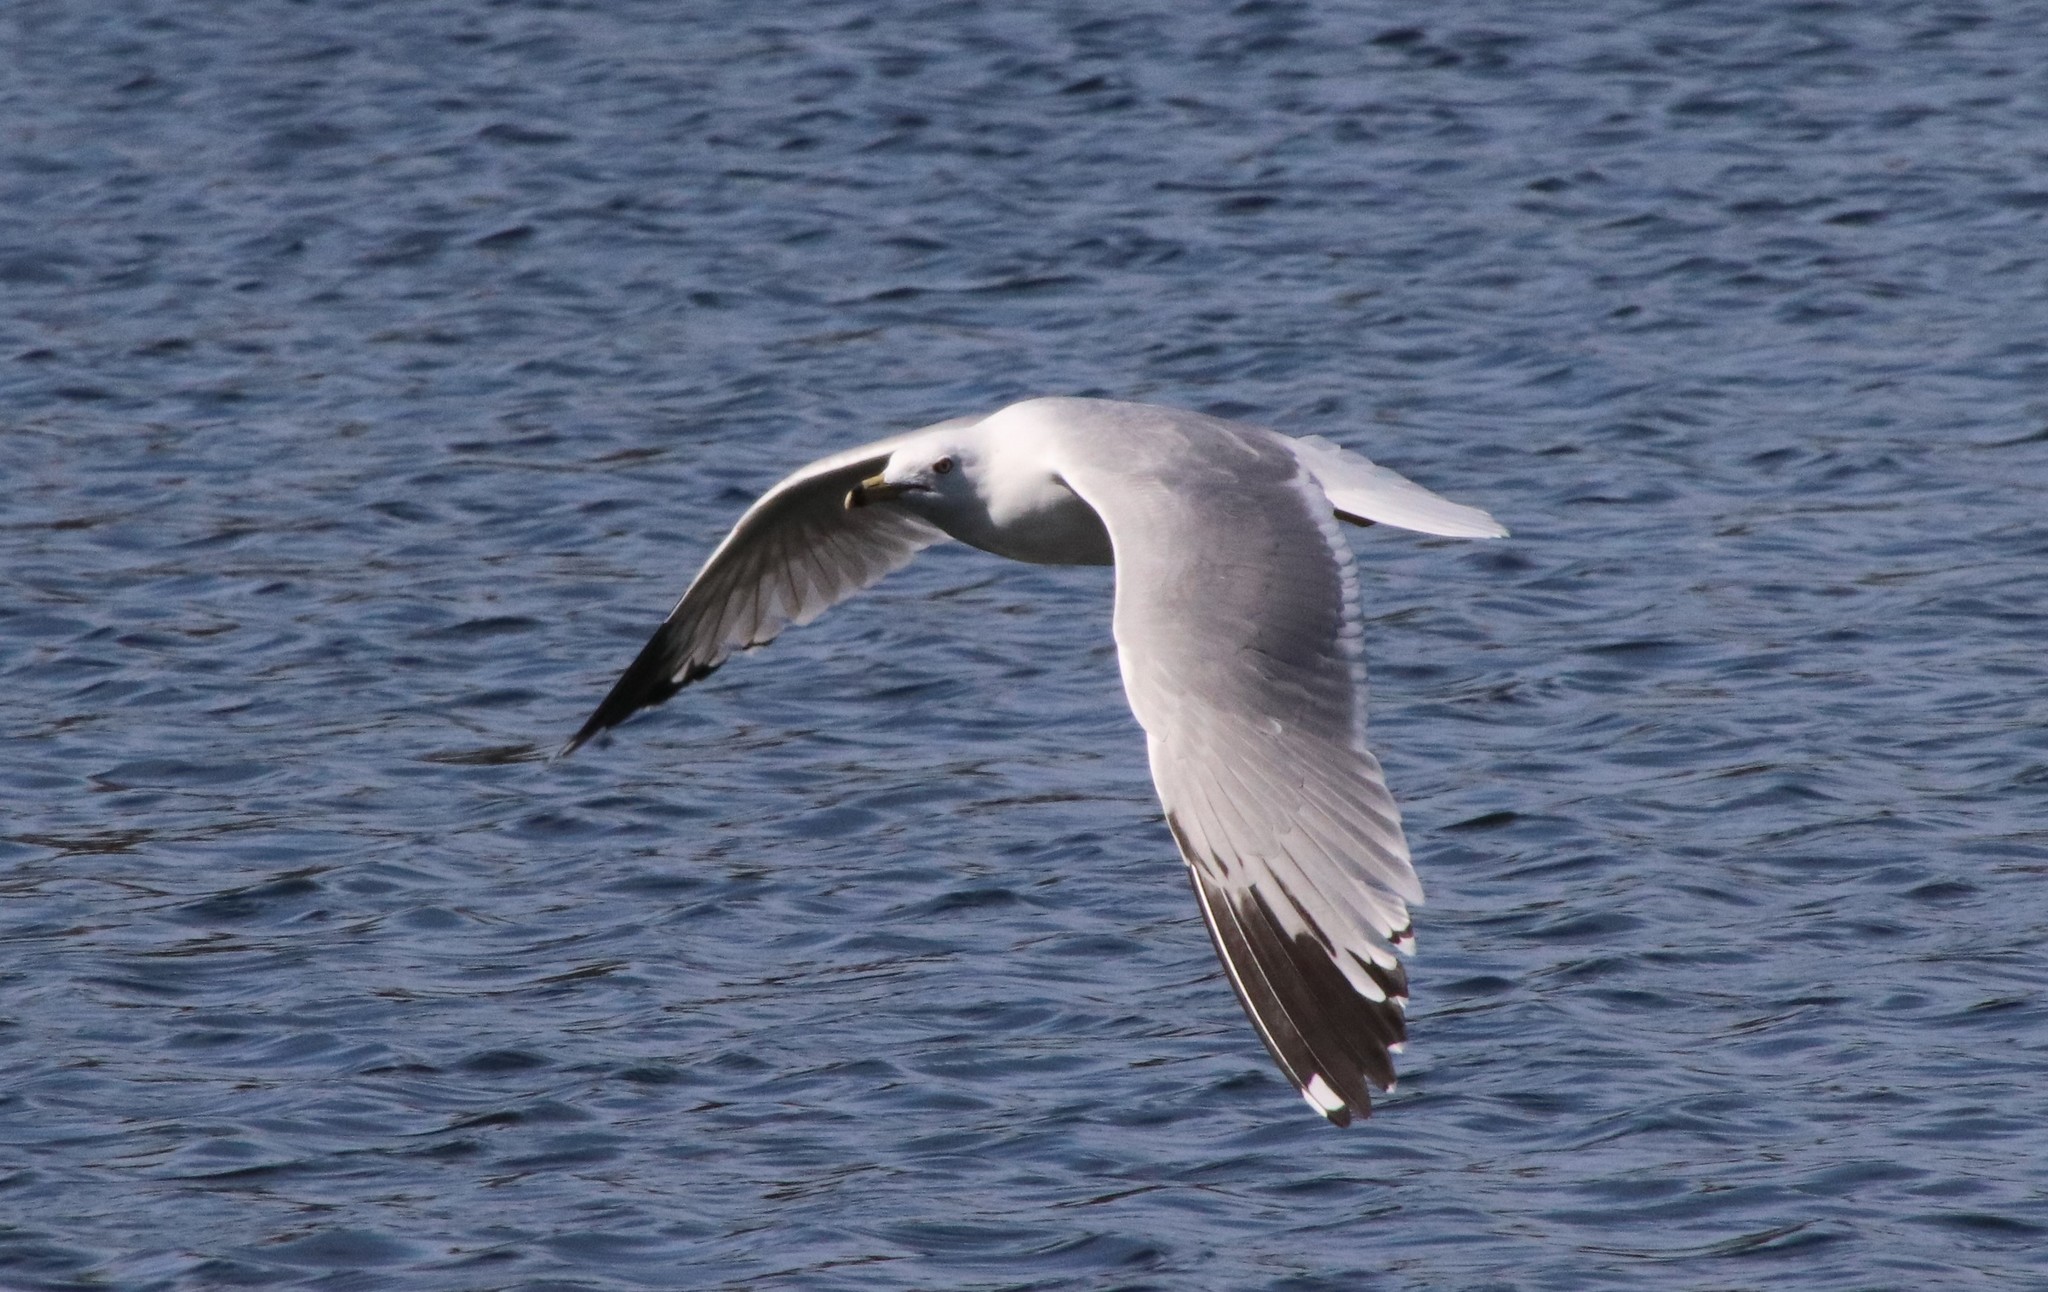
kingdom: Animalia
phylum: Chordata
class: Aves
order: Charadriiformes
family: Laridae
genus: Larus
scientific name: Larus delawarensis
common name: Ring-billed gull
